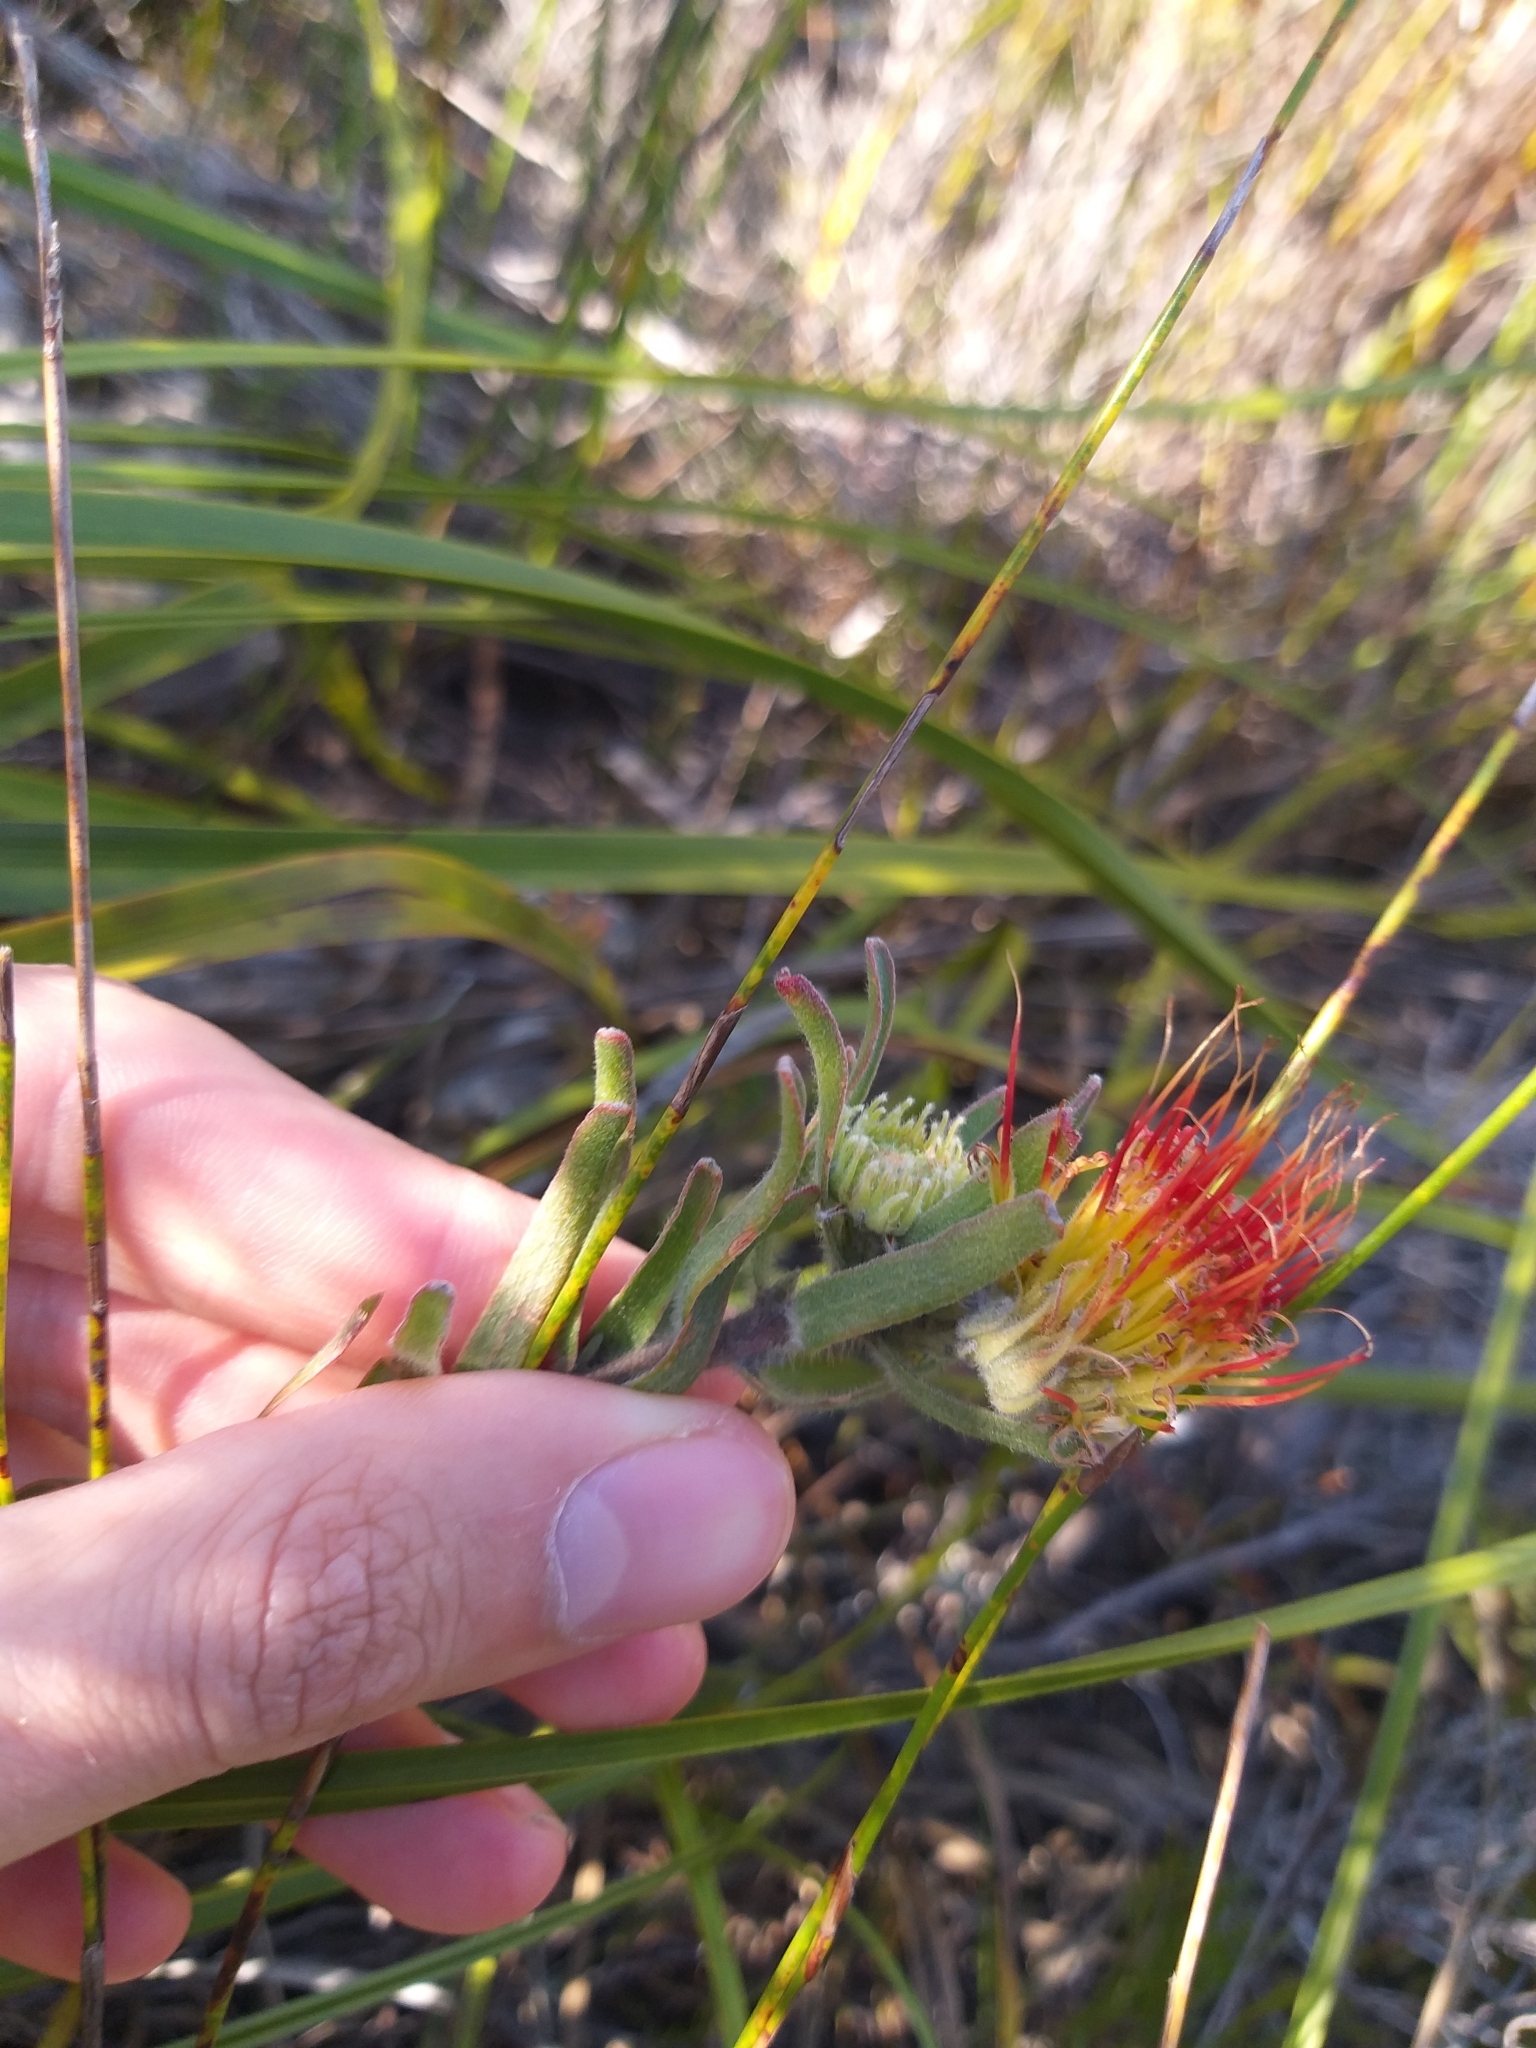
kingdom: Plantae
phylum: Tracheophyta
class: Magnoliopsida
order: Proteales
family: Proteaceae
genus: Leucospermum
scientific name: Leucospermum gracile
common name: Hermanus pincushion
